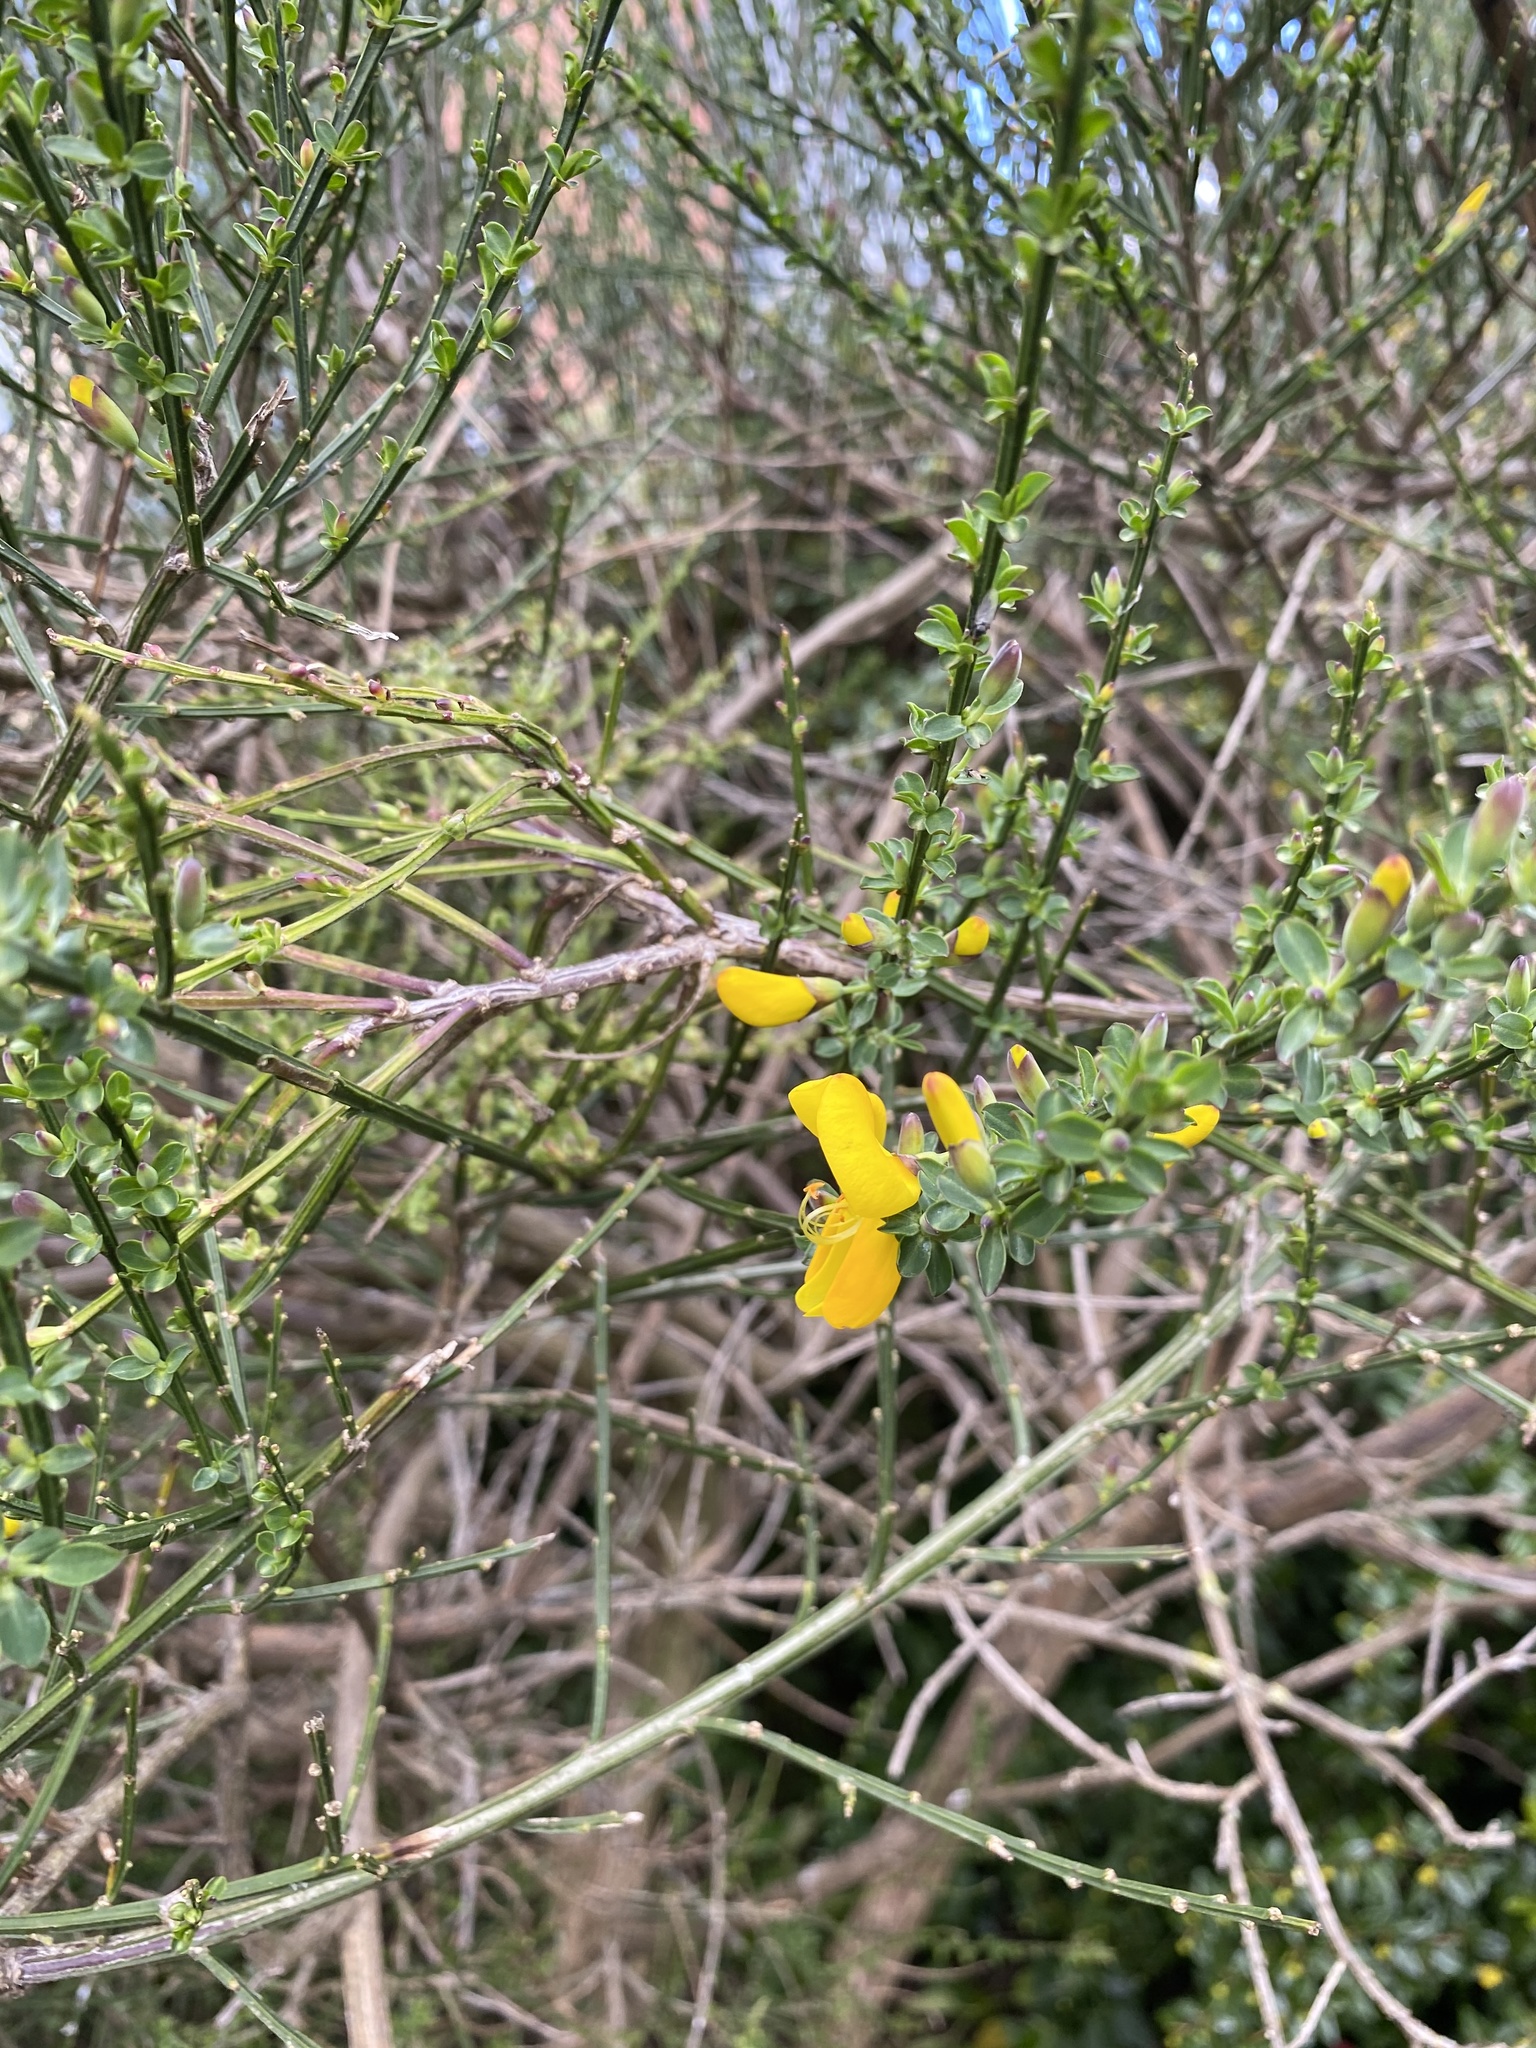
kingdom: Plantae
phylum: Tracheophyta
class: Magnoliopsida
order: Fabales
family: Fabaceae
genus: Cytisus
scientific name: Cytisus scoparius
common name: Scotch broom
